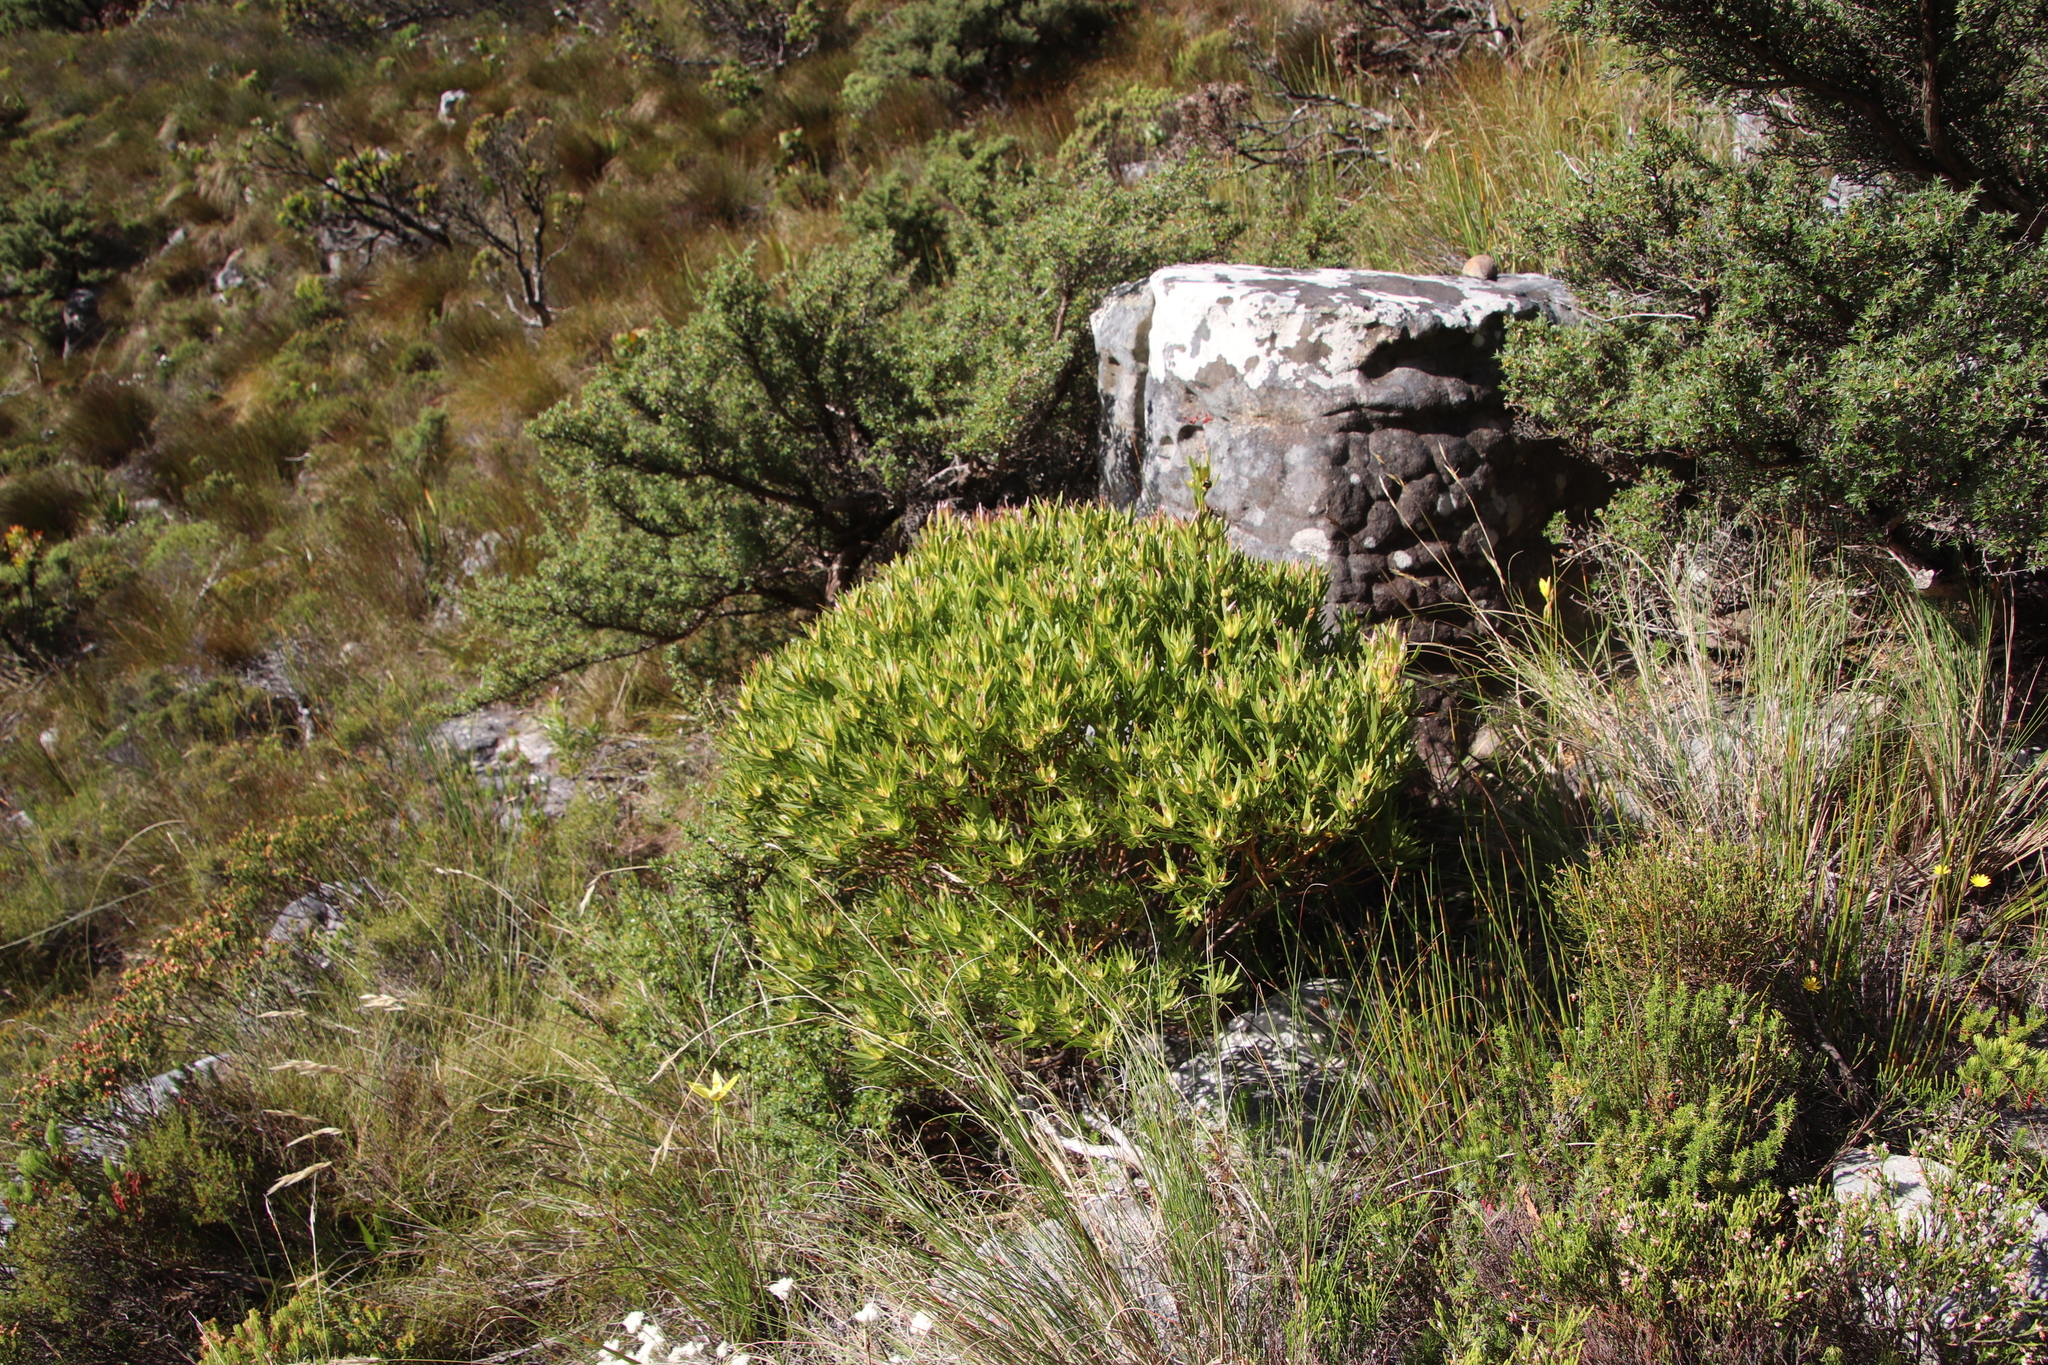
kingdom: Plantae
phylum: Tracheophyta
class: Magnoliopsida
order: Proteales
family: Proteaceae
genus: Leucadendron
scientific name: Leucadendron xanthoconus
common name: Sickle-leaf conebush
